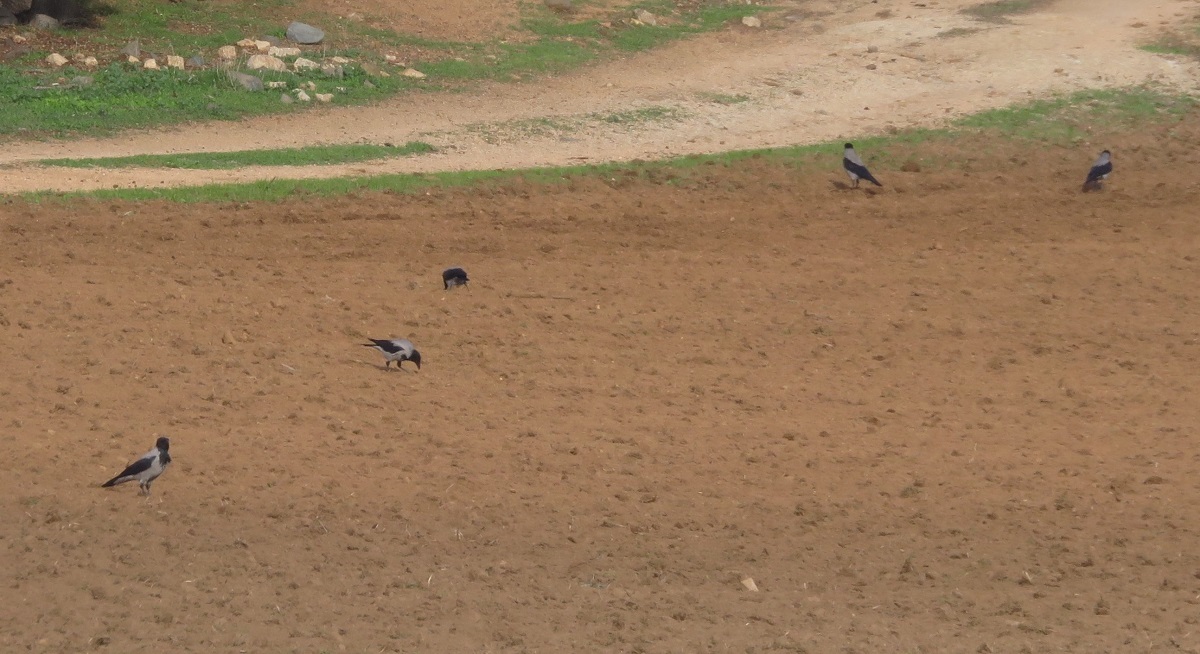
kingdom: Animalia
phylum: Chordata
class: Aves
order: Passeriformes
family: Corvidae
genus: Corvus
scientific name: Corvus cornix
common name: Hooded crow
